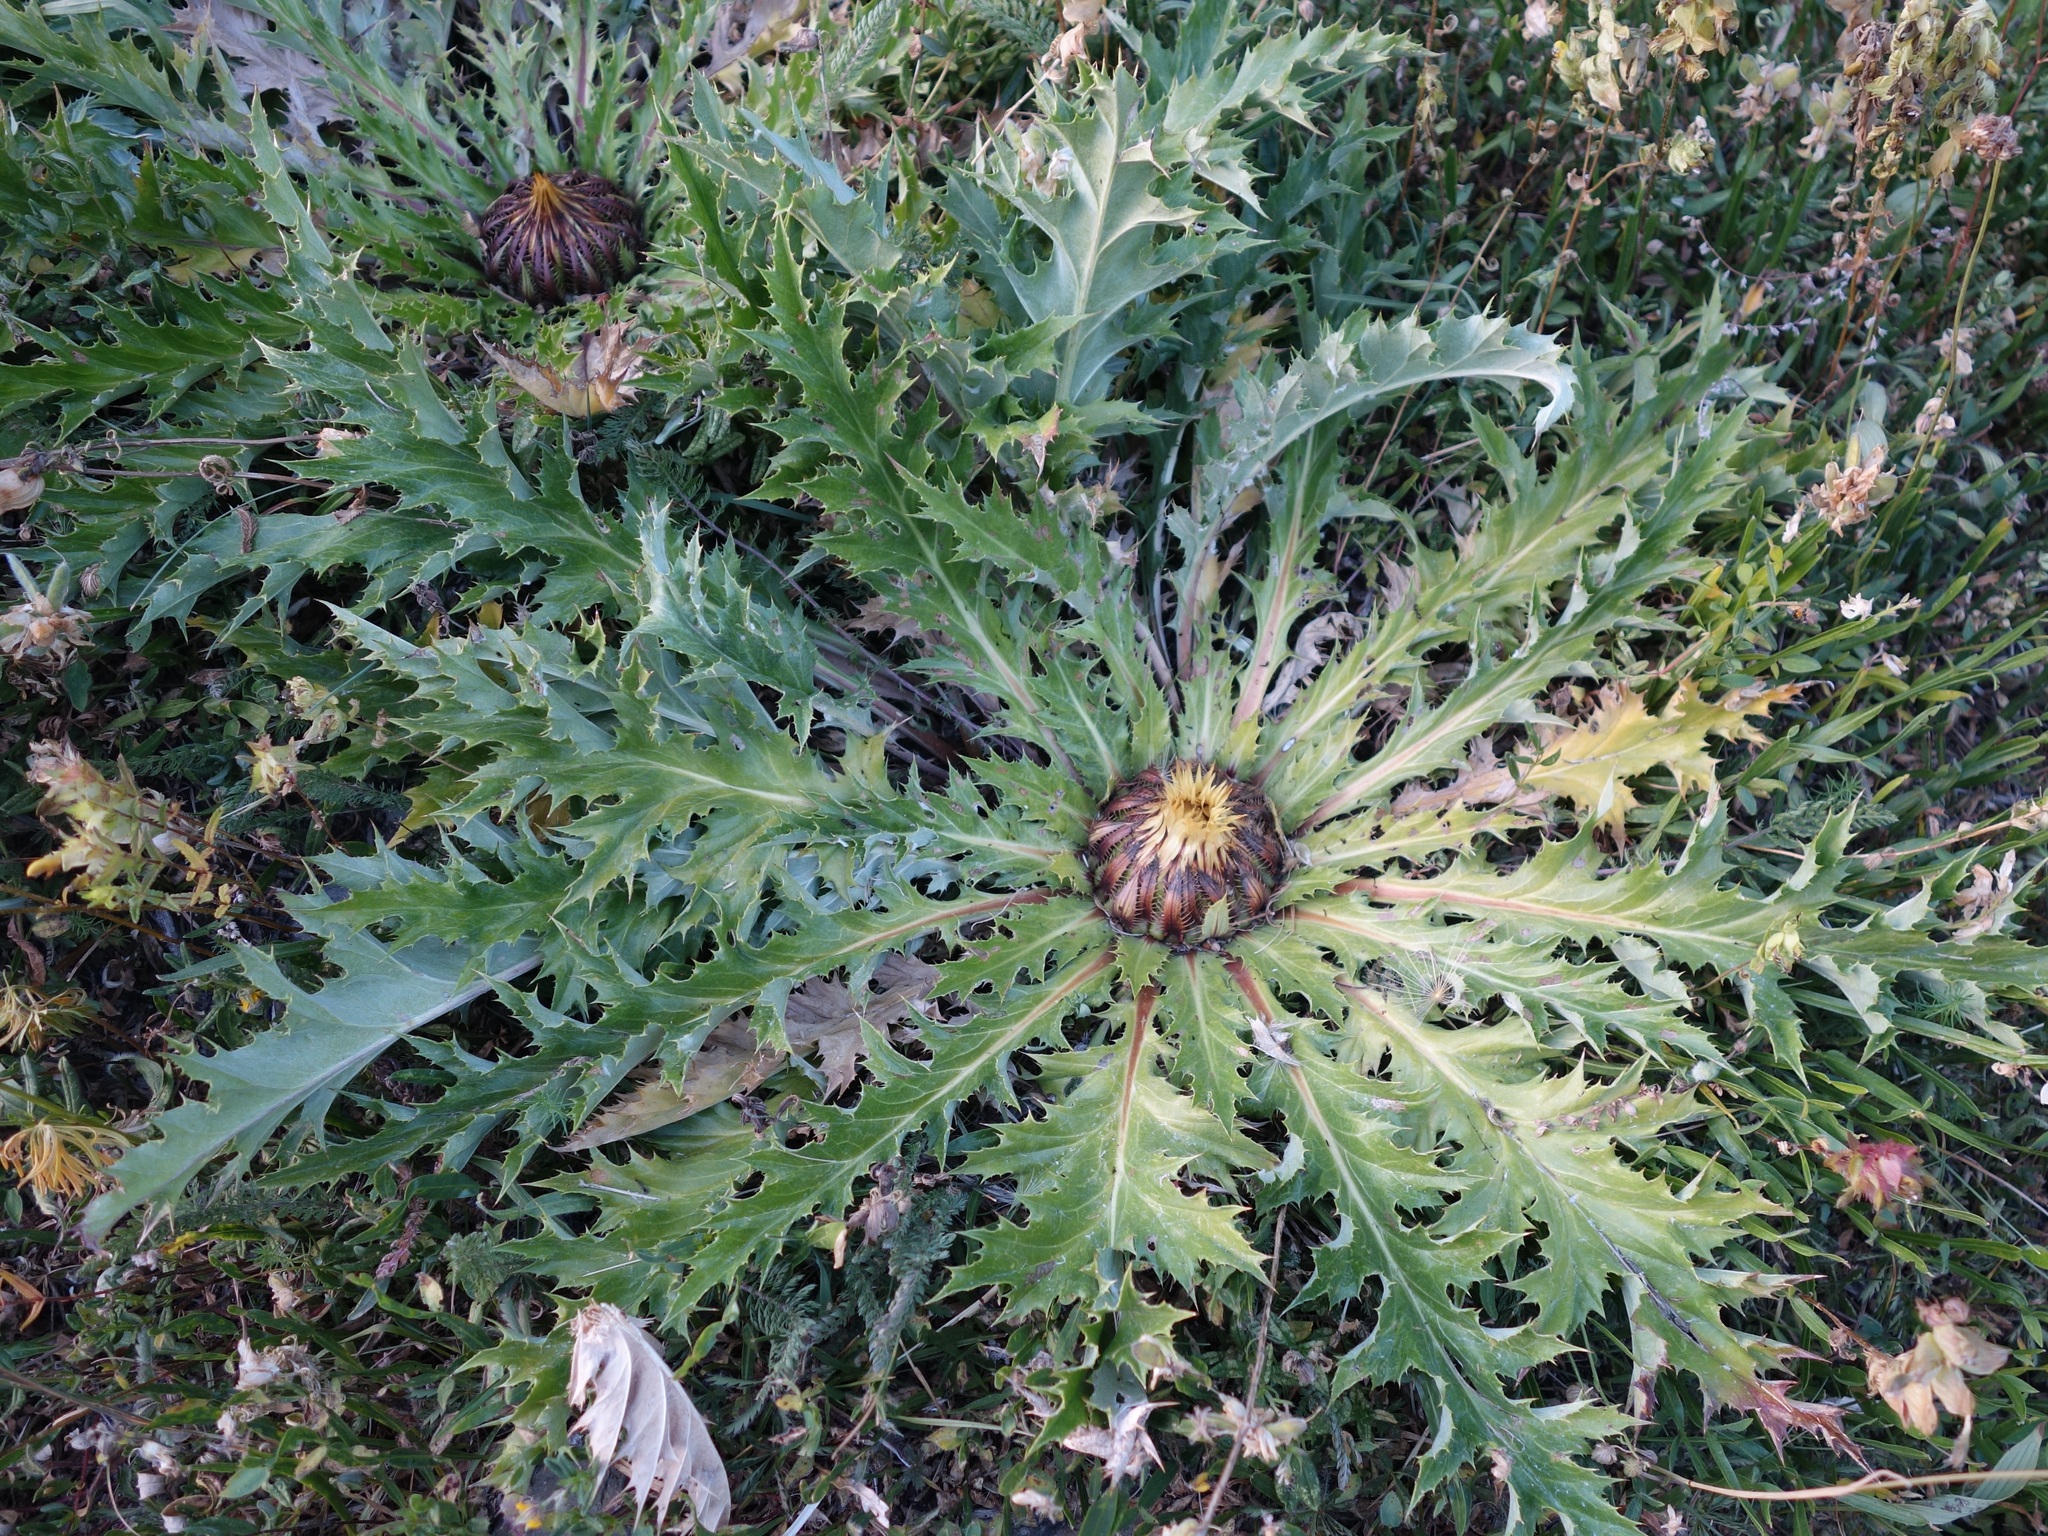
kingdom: Plantae
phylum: Tracheophyta
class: Magnoliopsida
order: Asterales
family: Asteraceae
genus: Carlina
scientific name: Carlina acanthifolia
